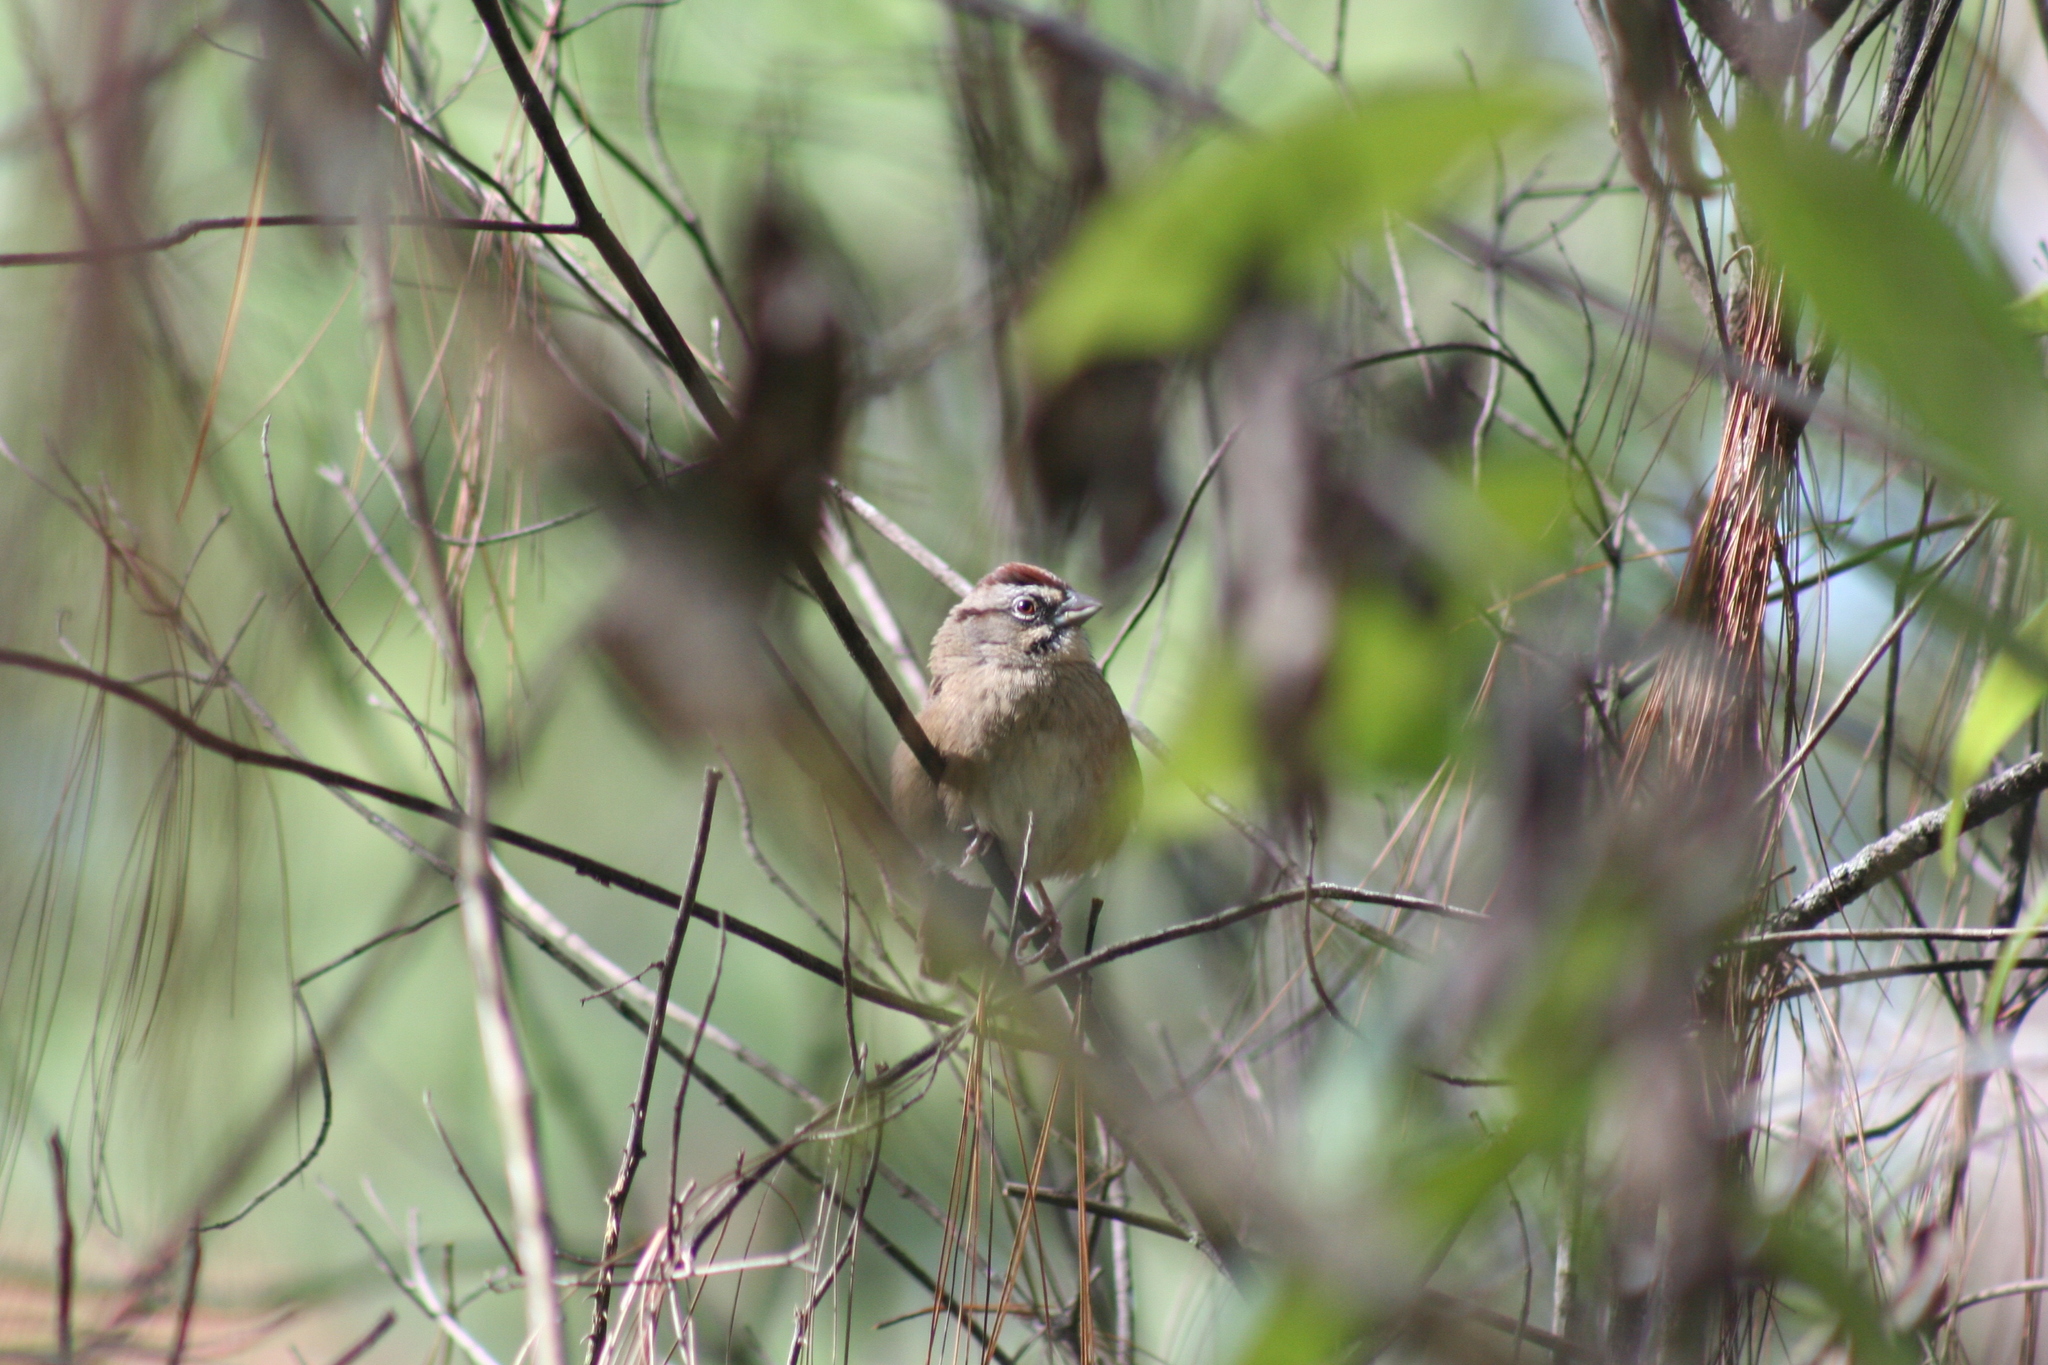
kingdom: Animalia
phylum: Chordata
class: Aves
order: Passeriformes
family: Passerellidae
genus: Aimophila
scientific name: Aimophila rufescens
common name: Rusty sparrow
